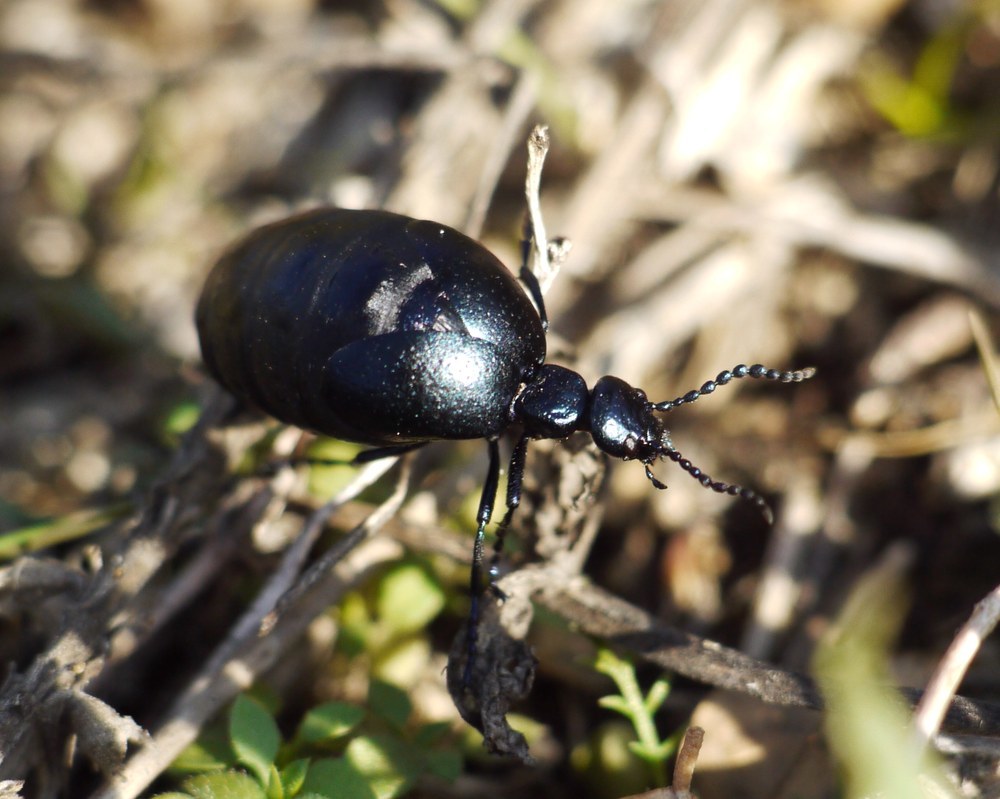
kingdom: Animalia
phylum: Arthropoda
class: Insecta
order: Coleoptera
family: Meloidae
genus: Meloe
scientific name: Meloe autumnalis
